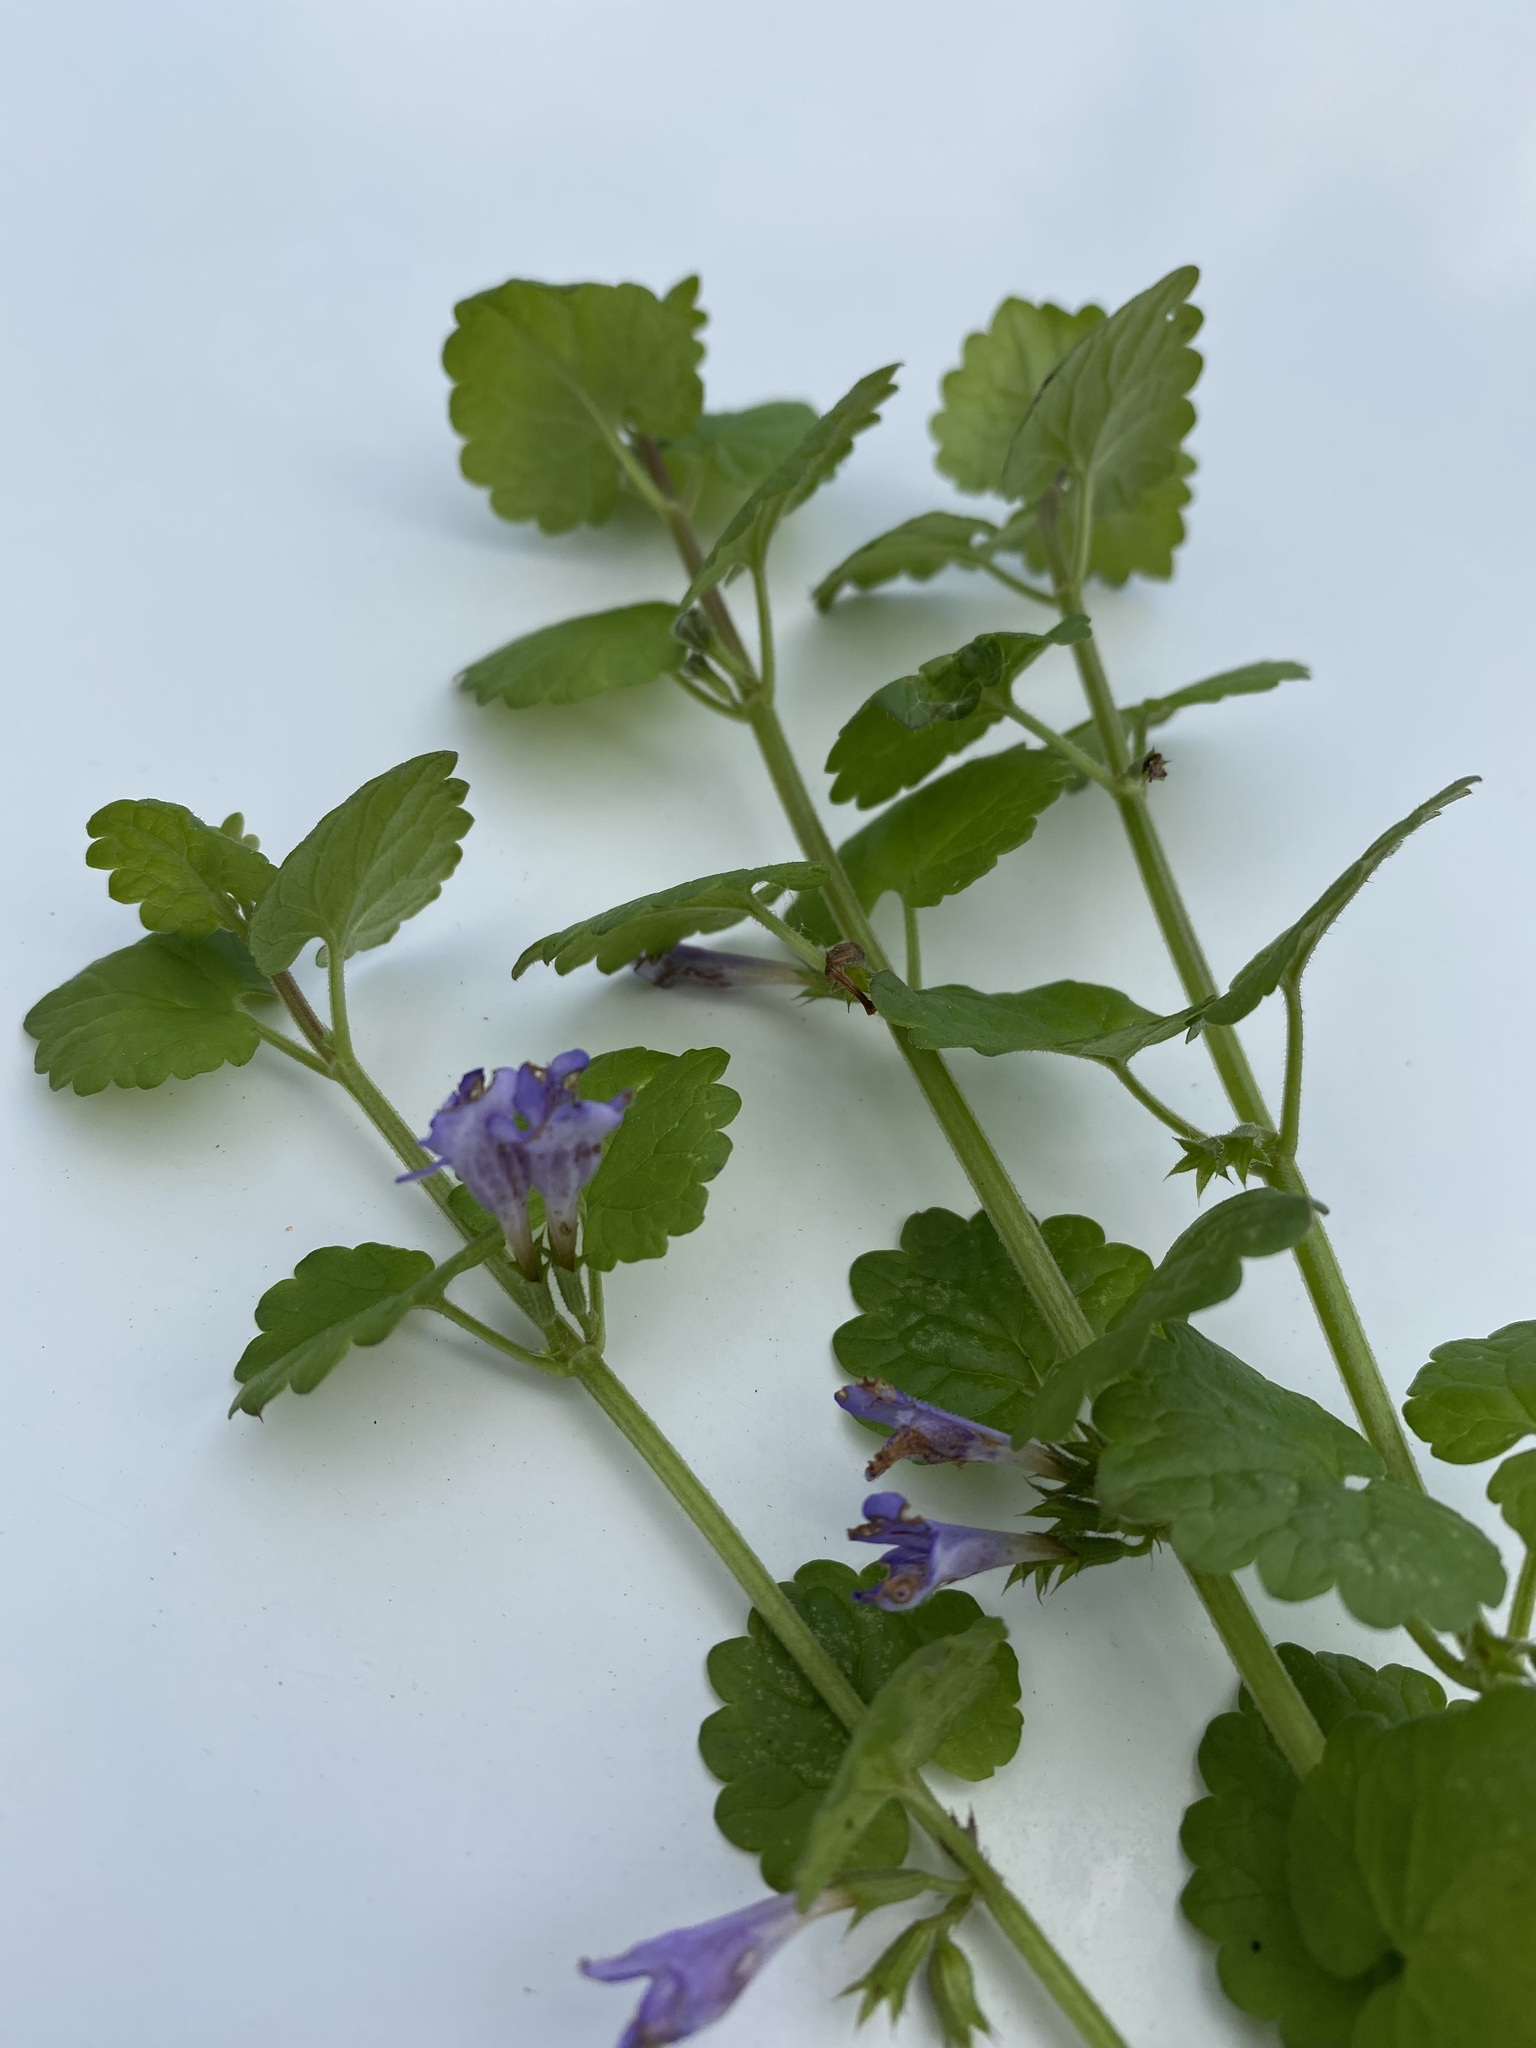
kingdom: Plantae
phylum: Tracheophyta
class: Magnoliopsida
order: Lamiales
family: Lamiaceae
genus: Glechoma
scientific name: Glechoma hederacea
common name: Ground ivy
